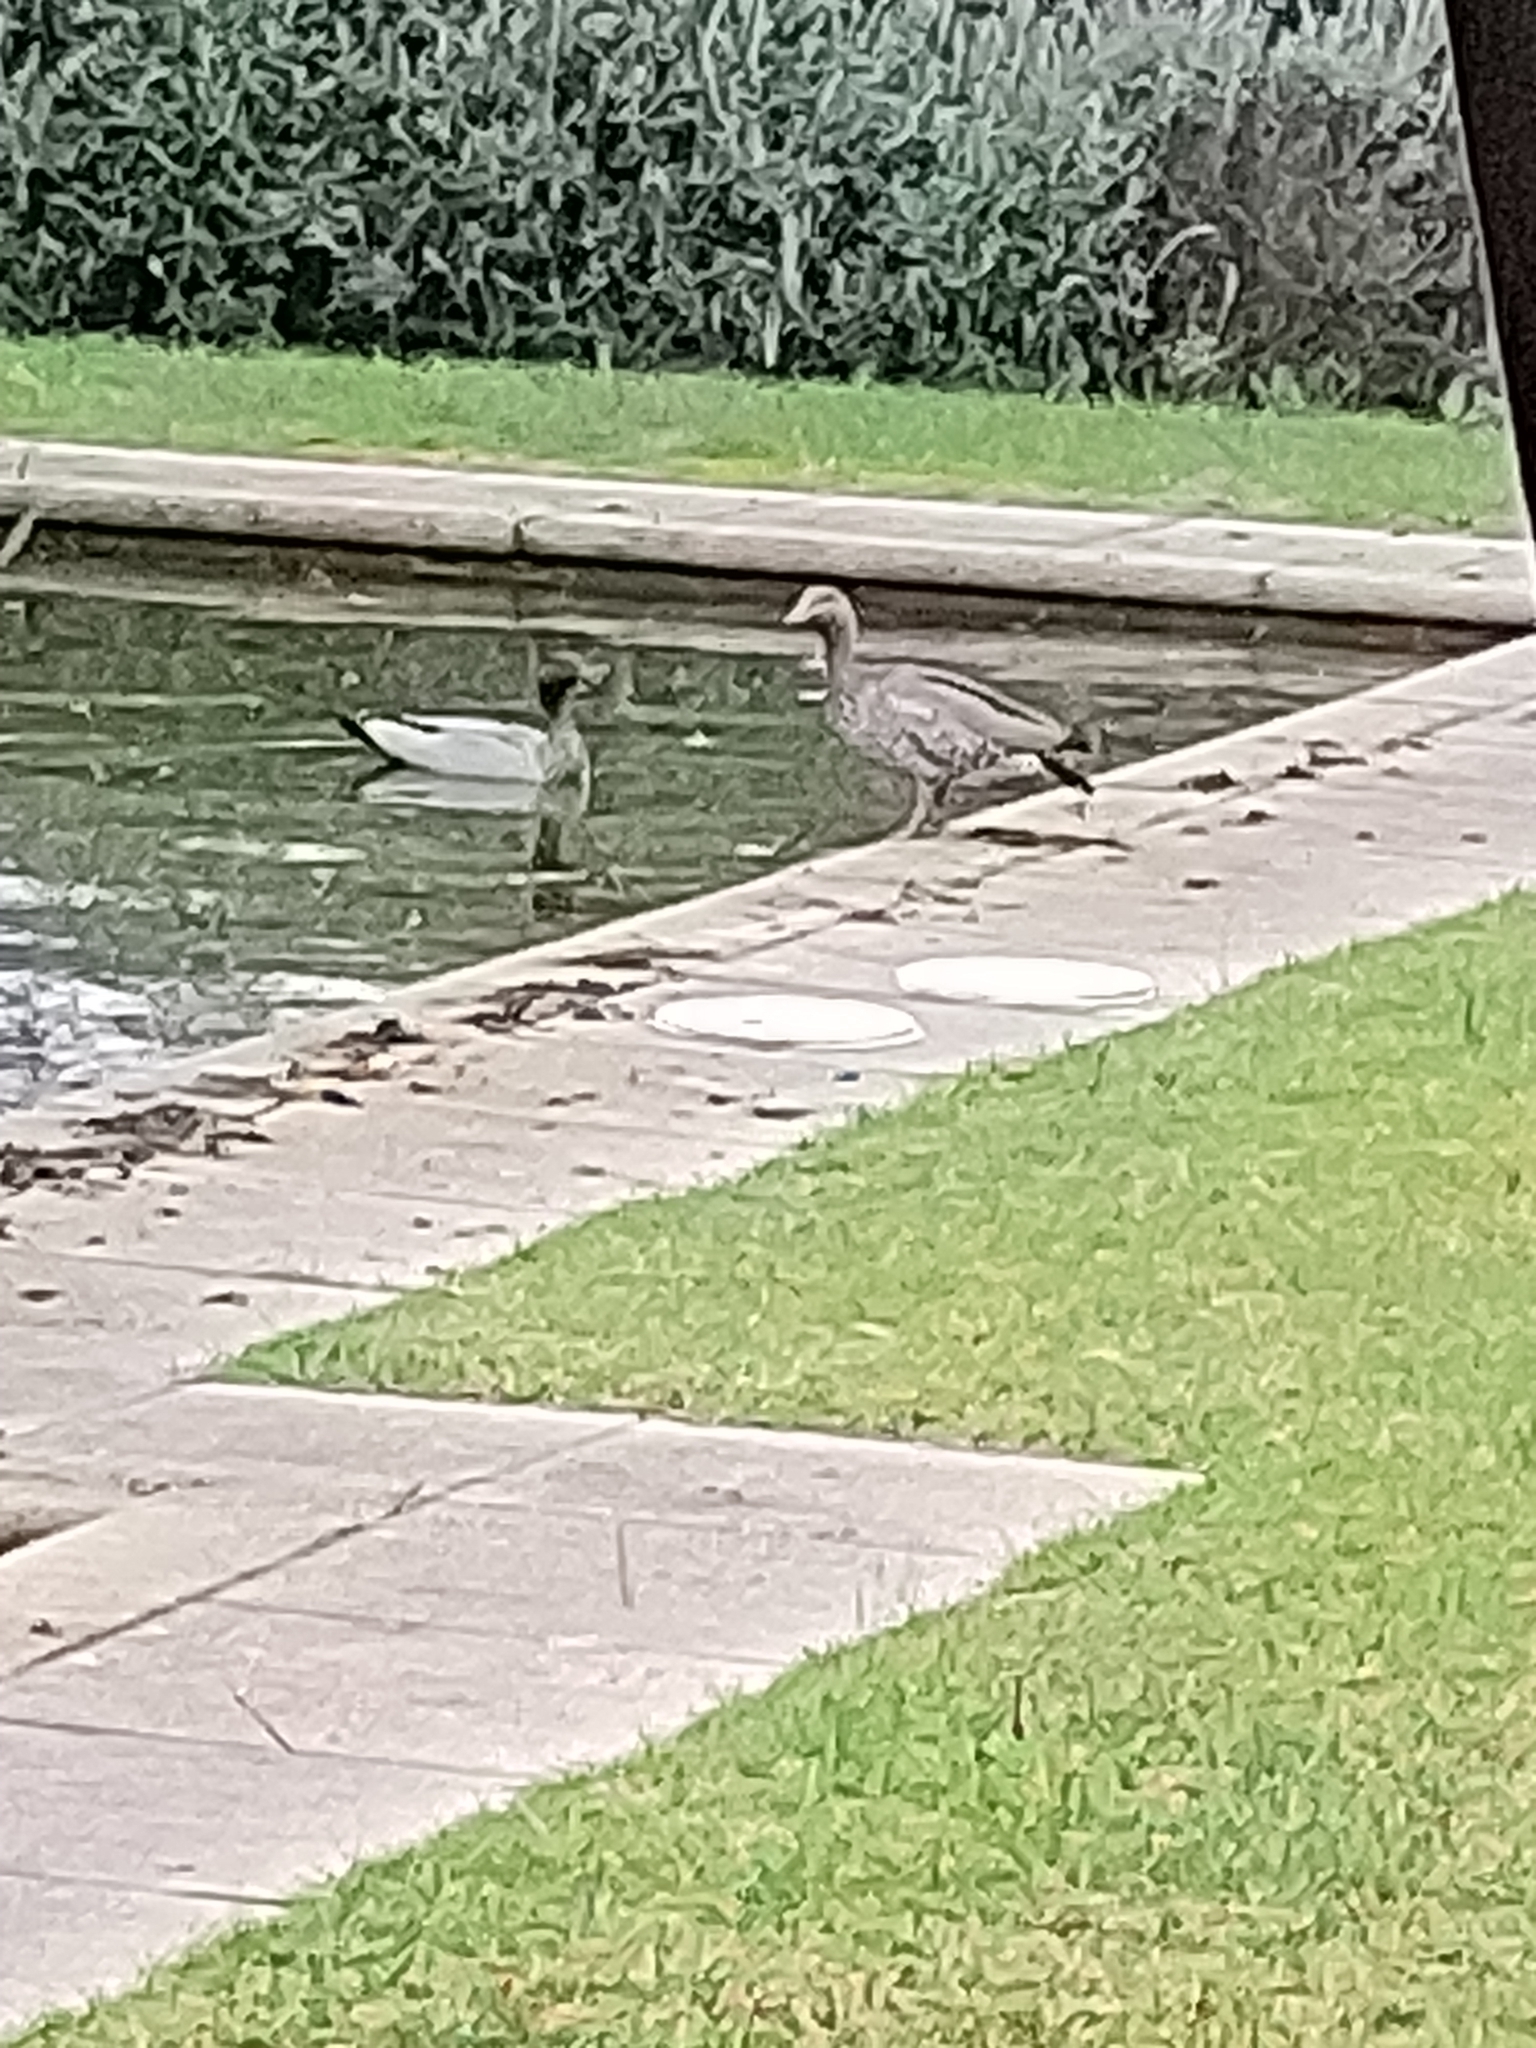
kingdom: Animalia
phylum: Chordata
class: Aves
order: Anseriformes
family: Anatidae
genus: Chenonetta
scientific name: Chenonetta jubata
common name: Maned duck
